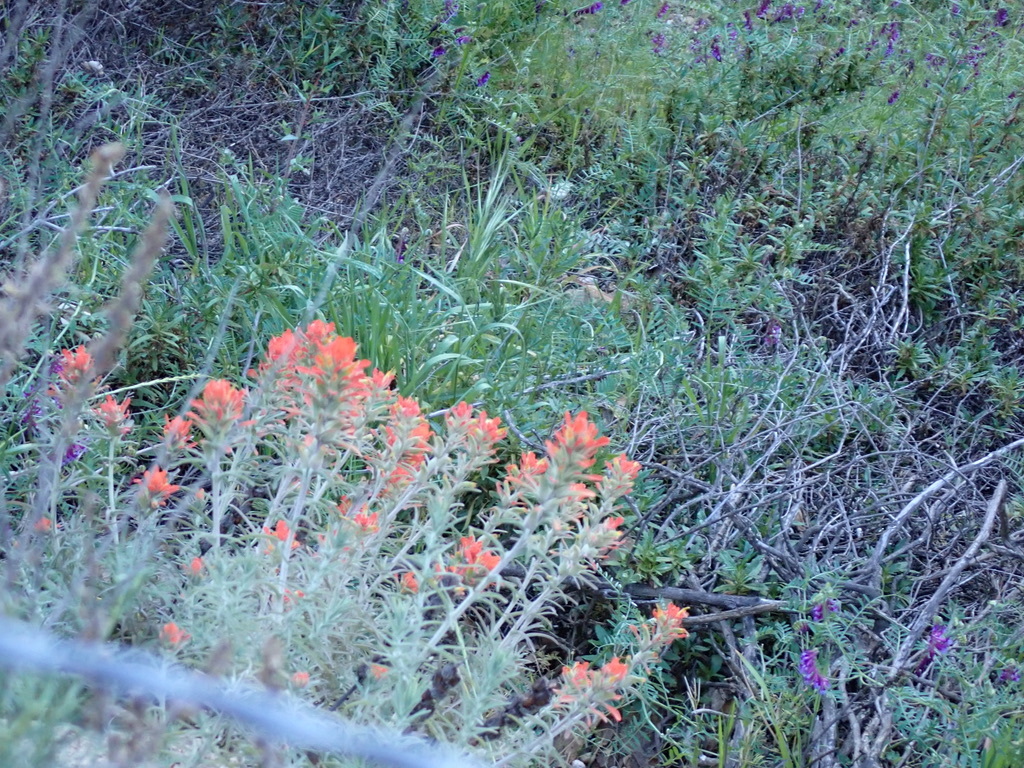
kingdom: Plantae
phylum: Tracheophyta
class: Magnoliopsida
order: Lamiales
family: Orobanchaceae
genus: Castilleja
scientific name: Castilleja foliolosa
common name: Woolly indian paintbrush
